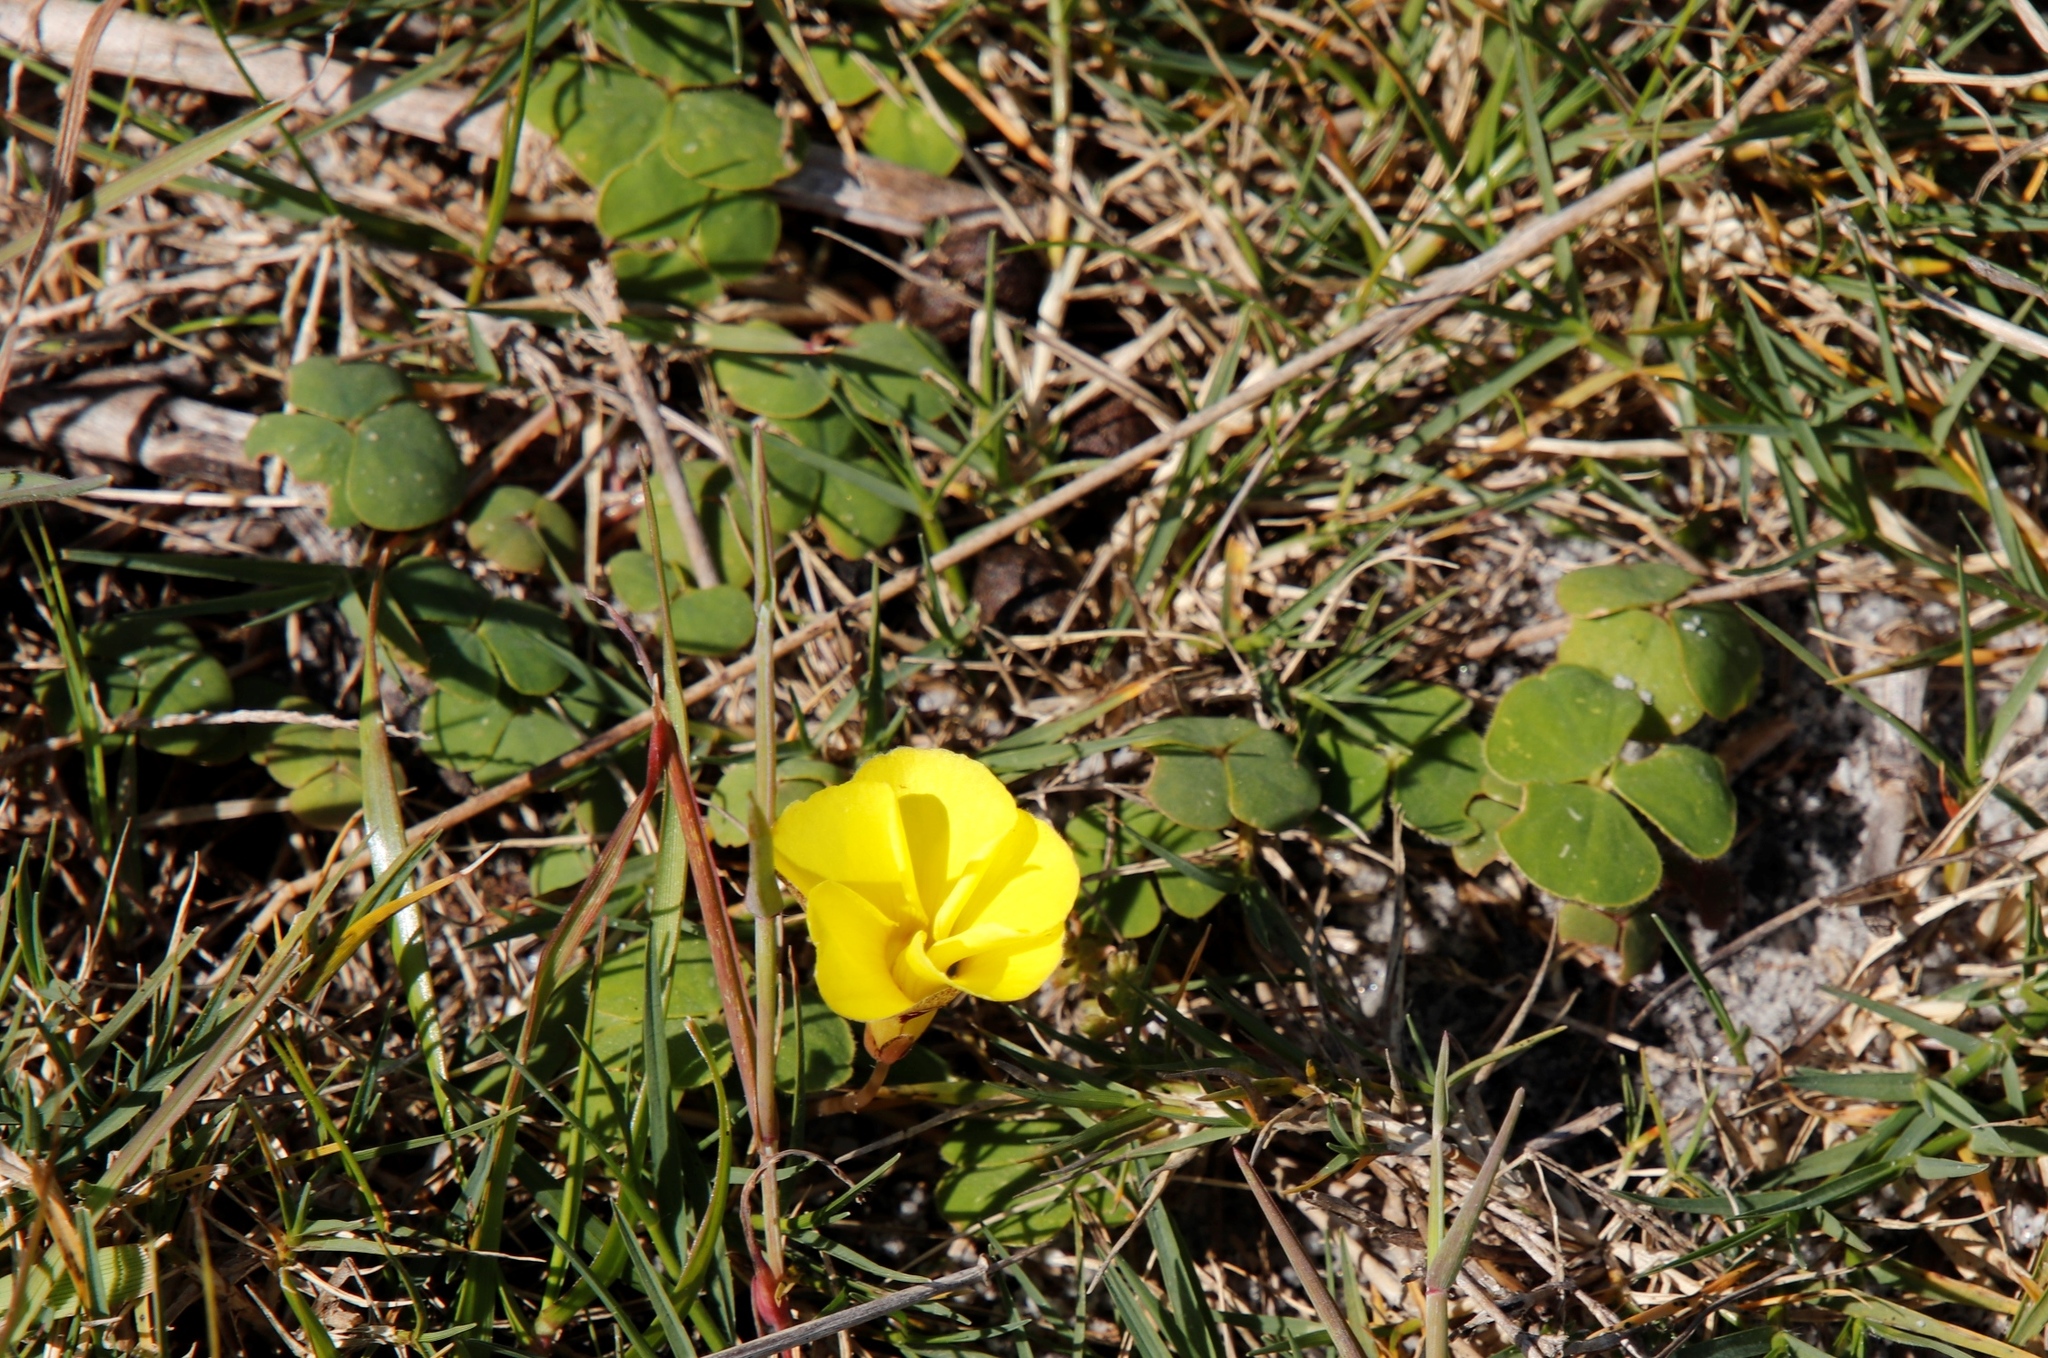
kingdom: Plantae
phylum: Tracheophyta
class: Magnoliopsida
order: Oxalidales
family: Oxalidaceae
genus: Oxalis
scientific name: Oxalis luteola
